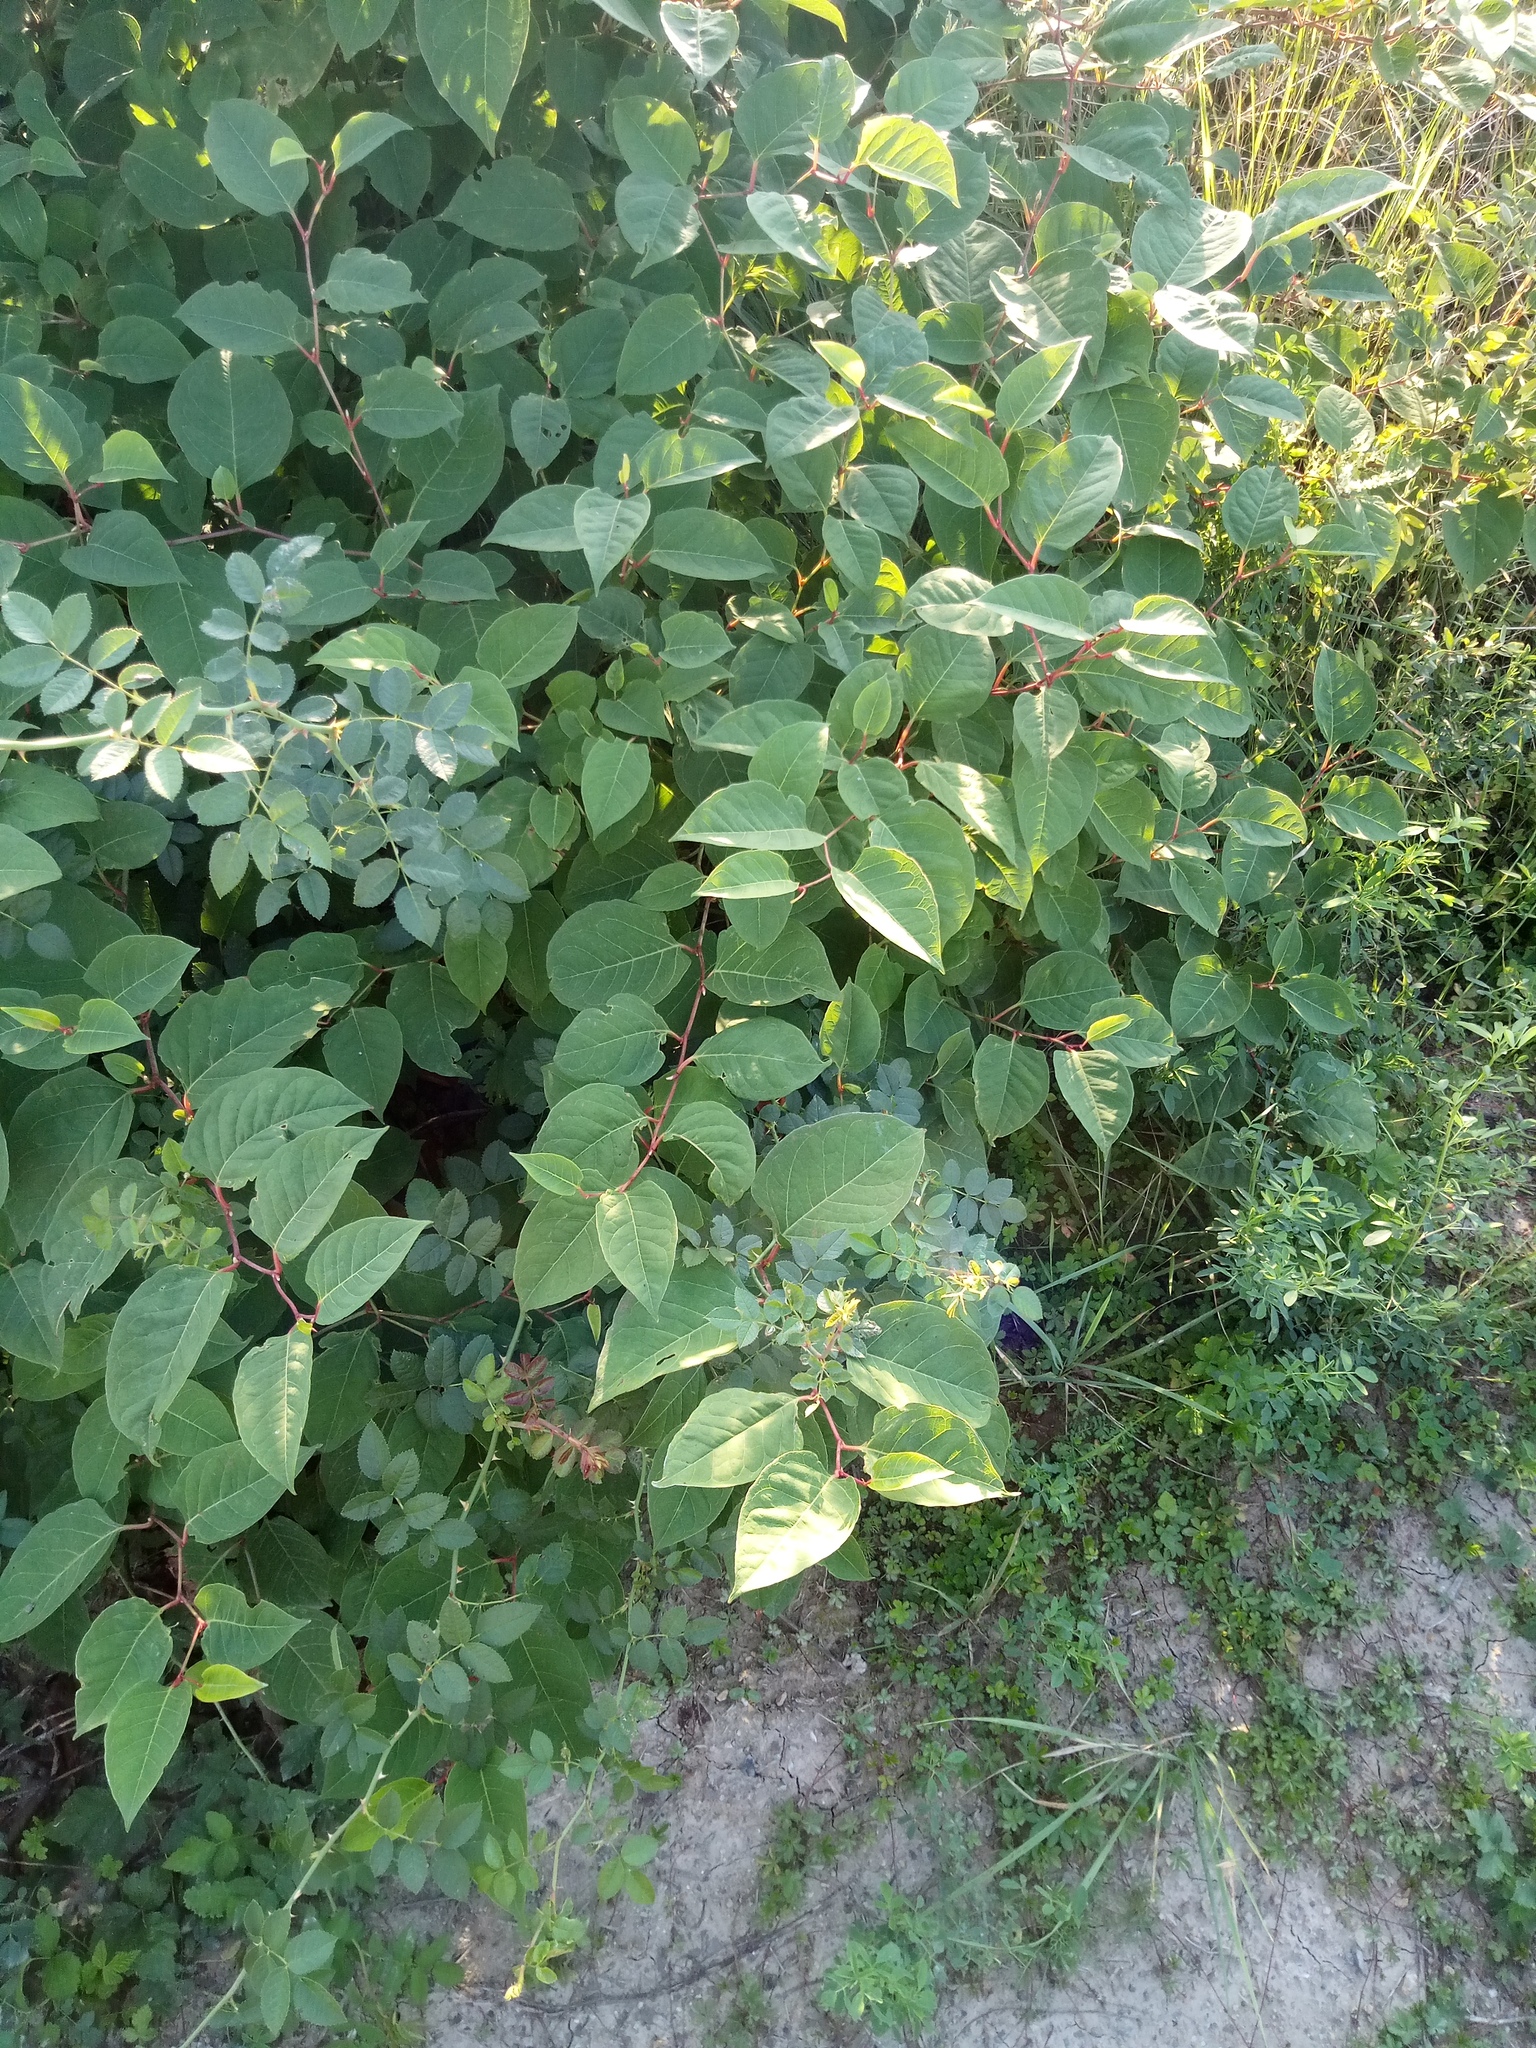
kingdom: Plantae
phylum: Tracheophyta
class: Magnoliopsida
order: Caryophyllales
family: Polygonaceae
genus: Reynoutria
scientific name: Reynoutria japonica
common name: Japanese knotweed
